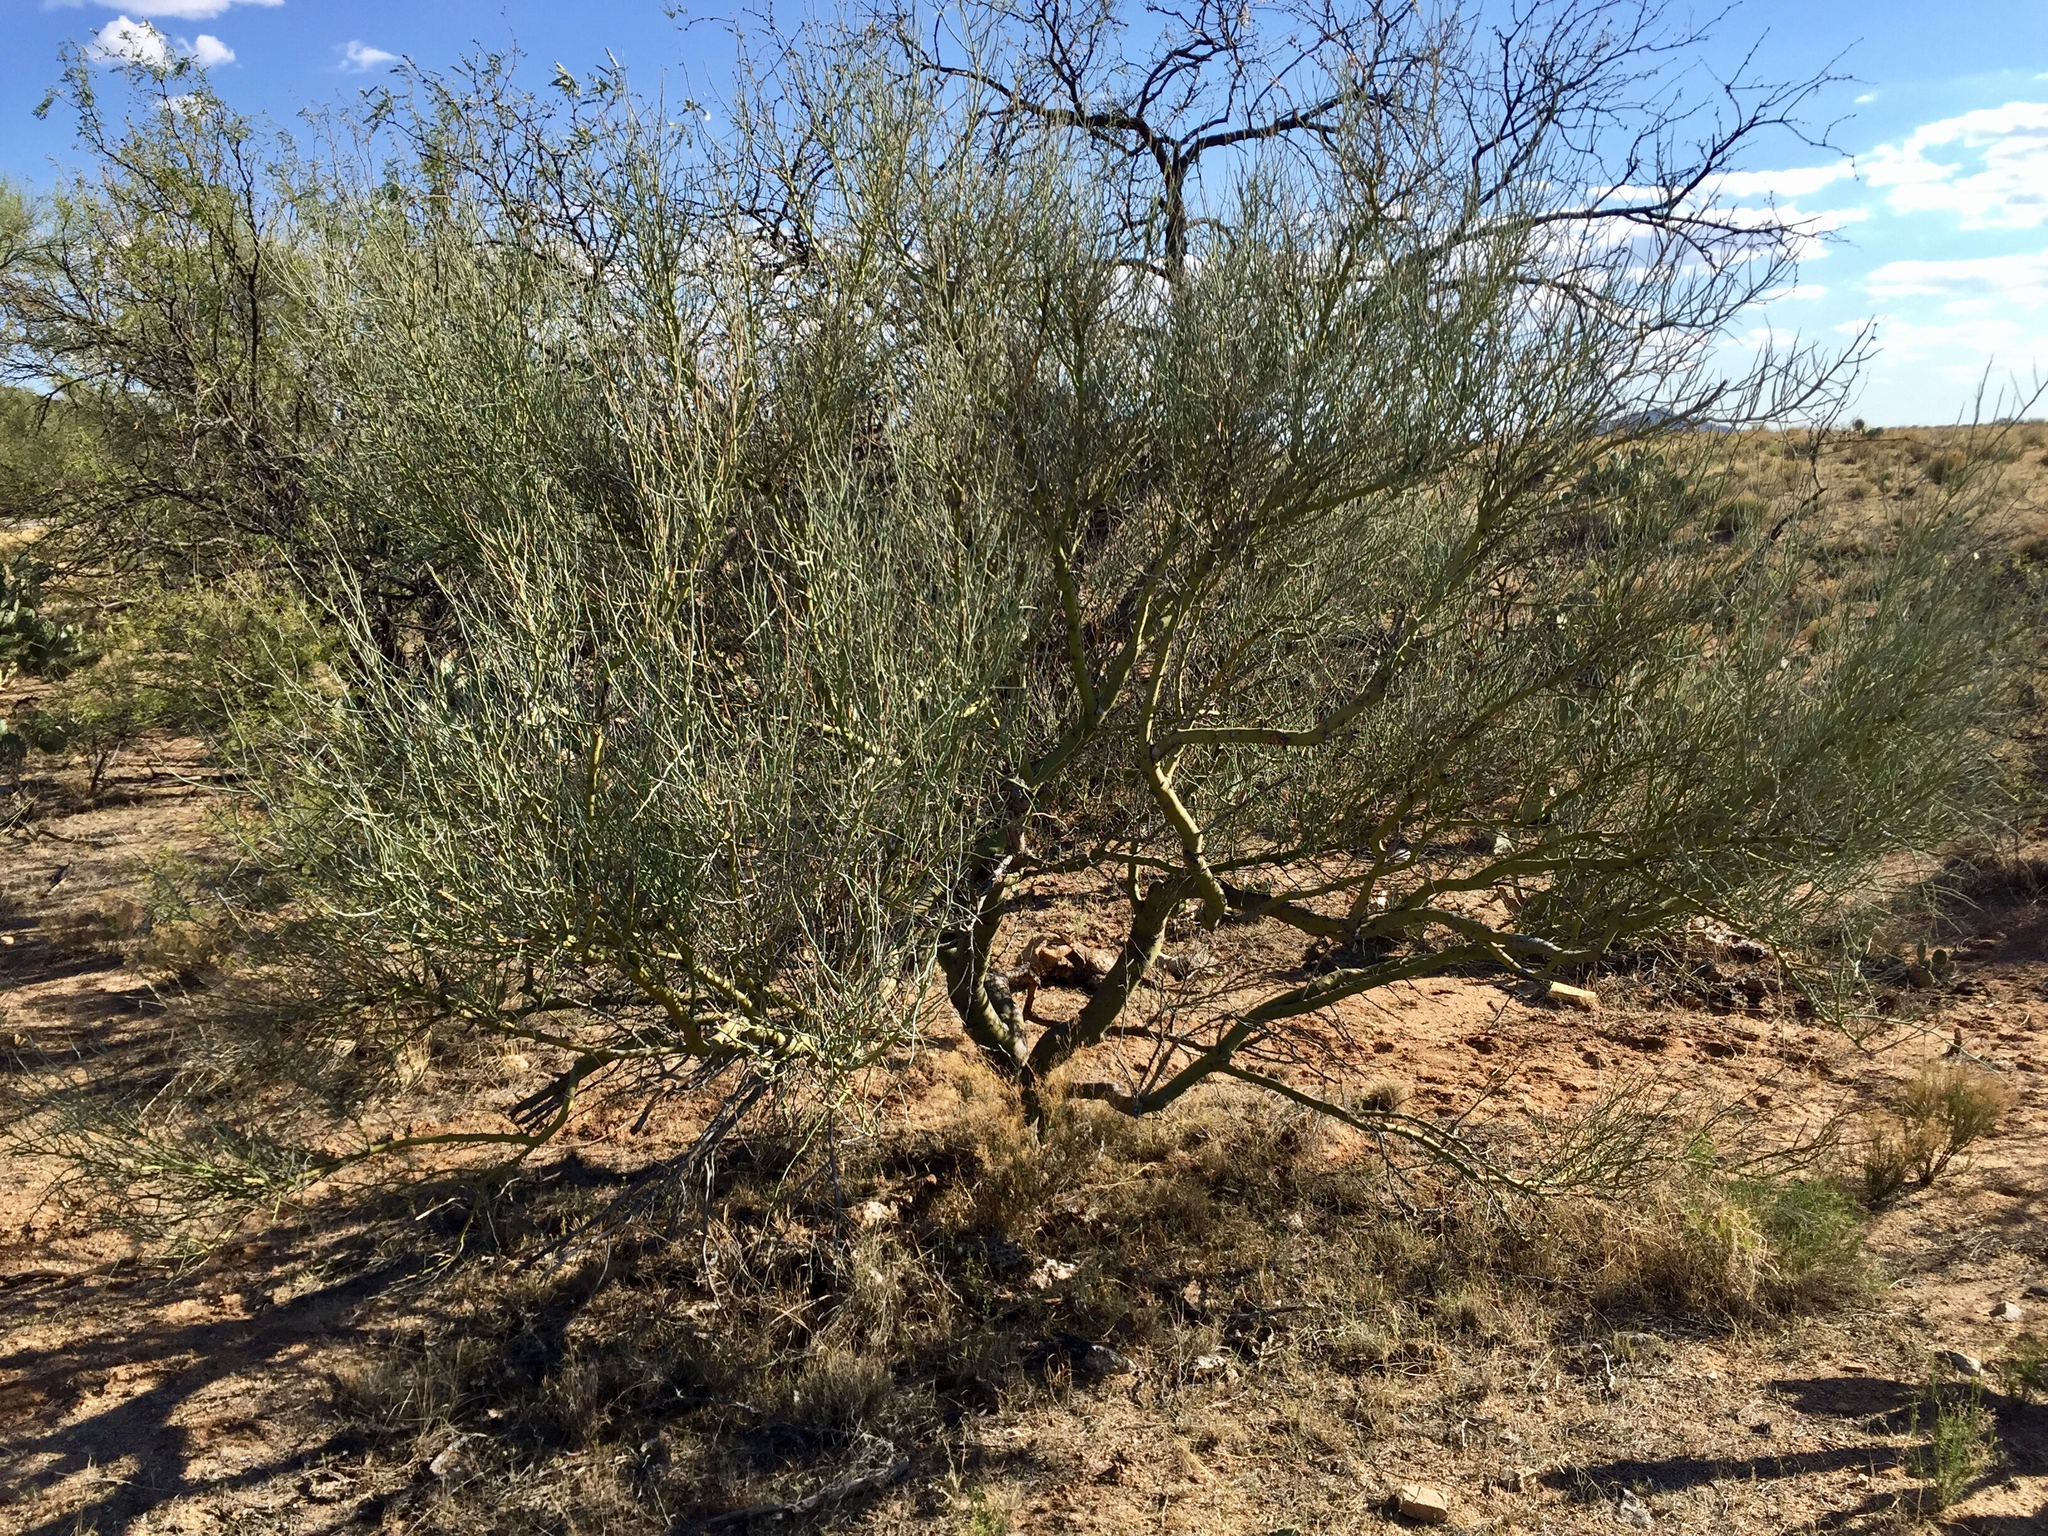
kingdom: Plantae
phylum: Tracheophyta
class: Magnoliopsida
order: Fabales
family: Fabaceae
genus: Parkinsonia
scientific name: Parkinsonia florida
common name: Blue paloverde
